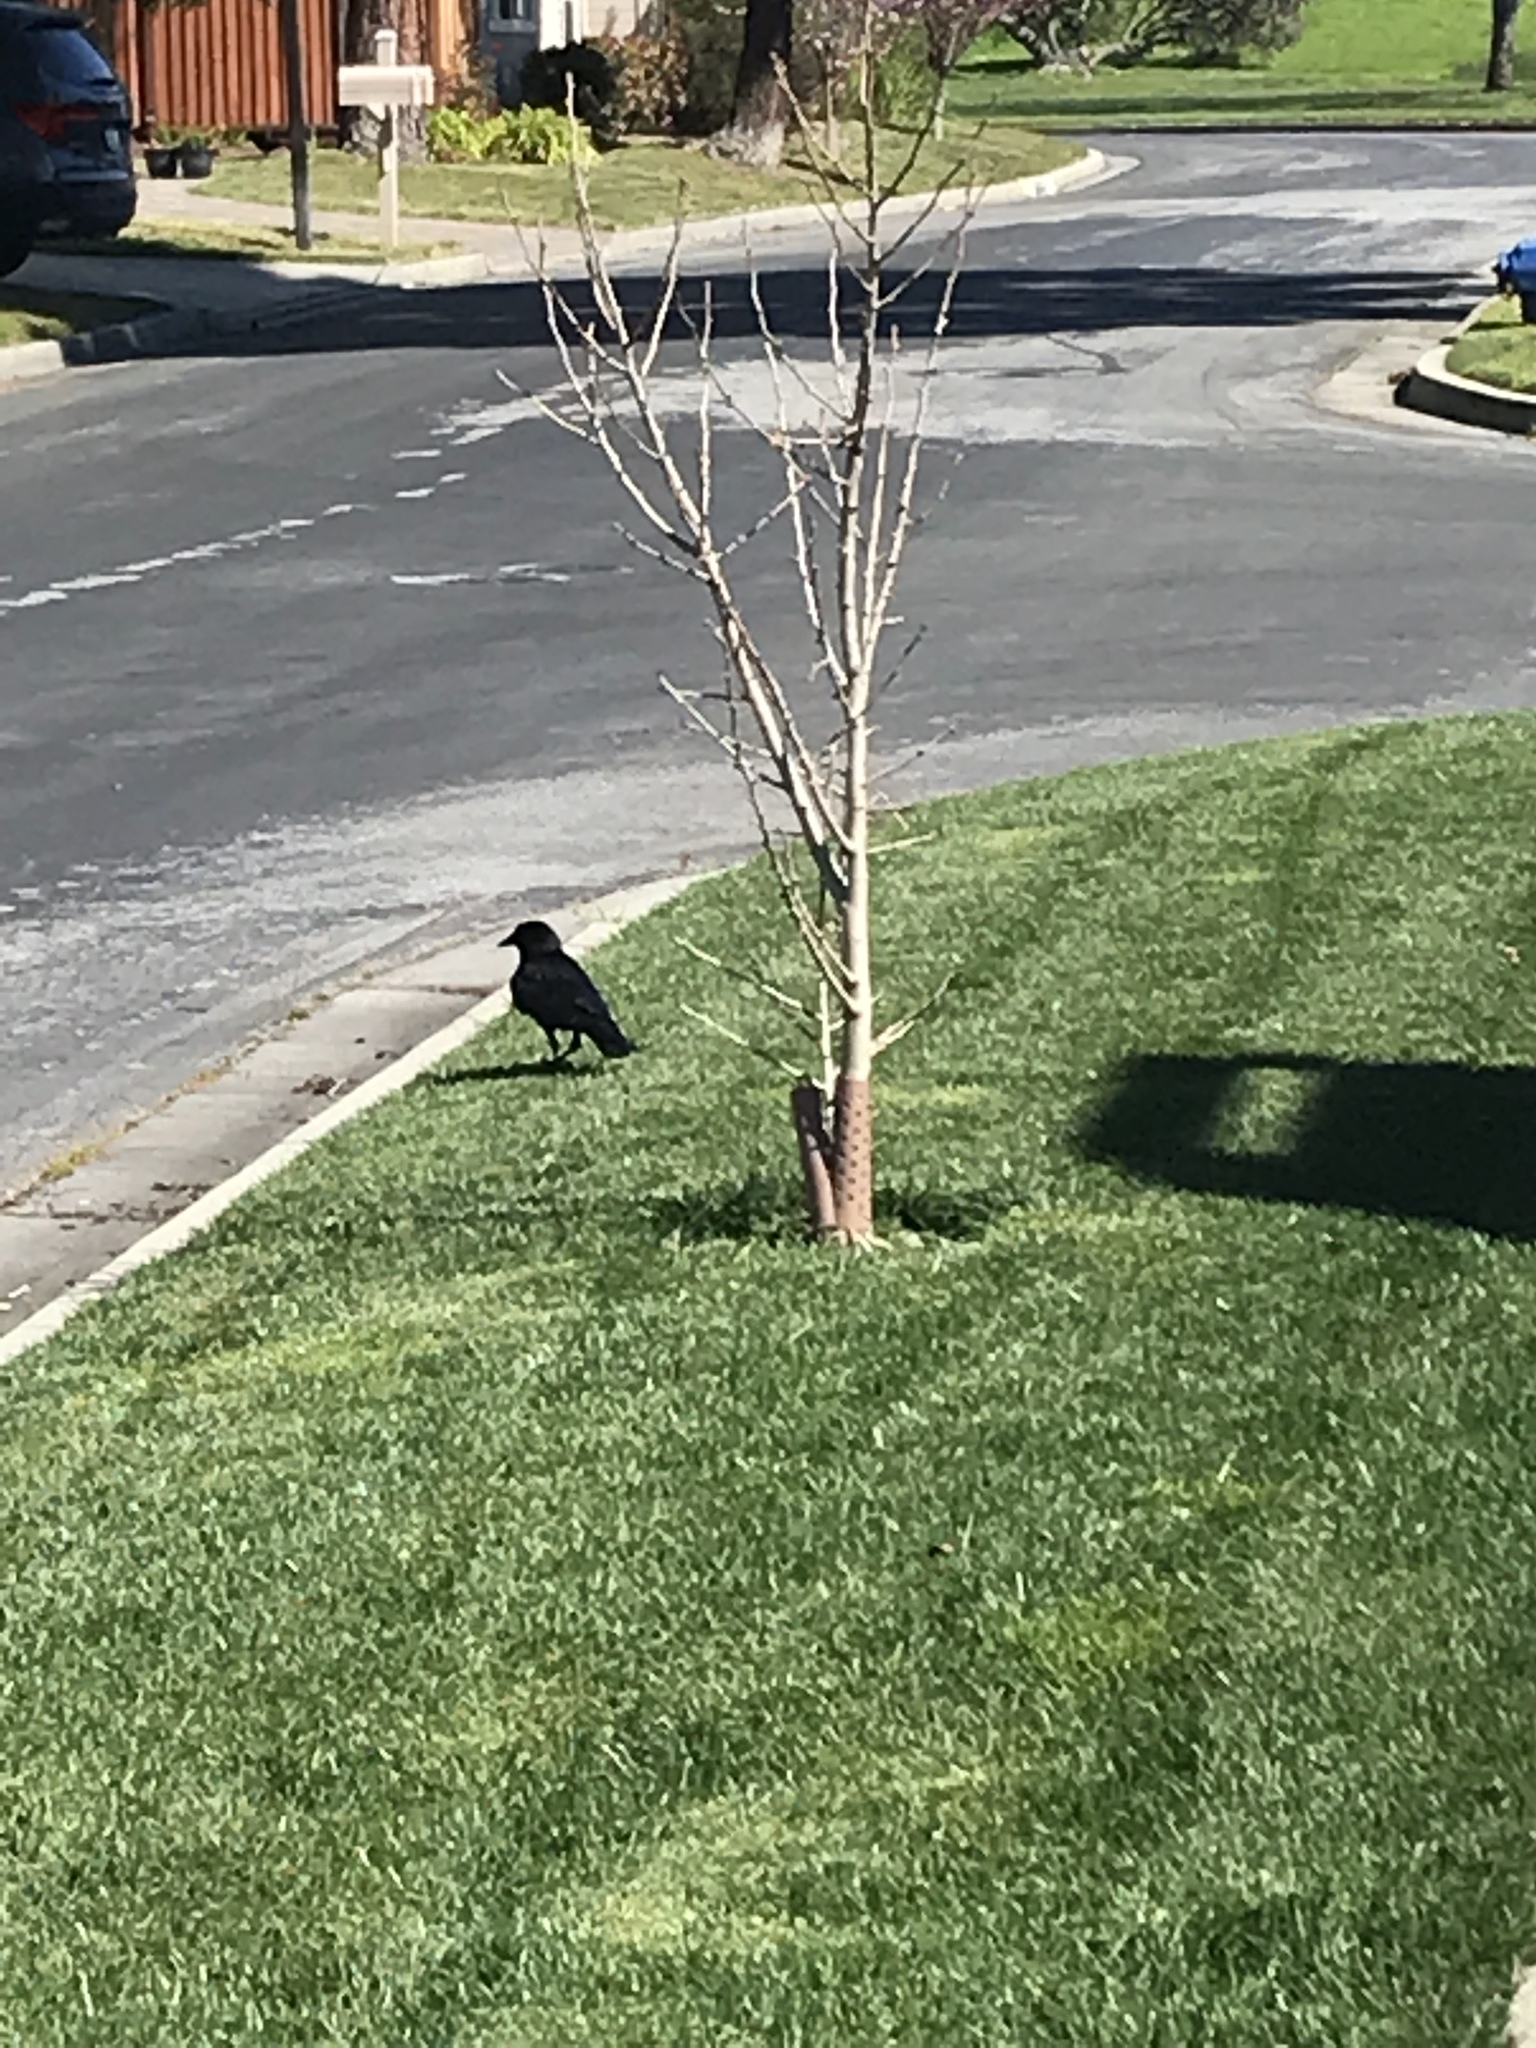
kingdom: Animalia
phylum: Chordata
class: Aves
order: Passeriformes
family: Corvidae
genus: Corvus
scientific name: Corvus brachyrhynchos
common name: American crow
